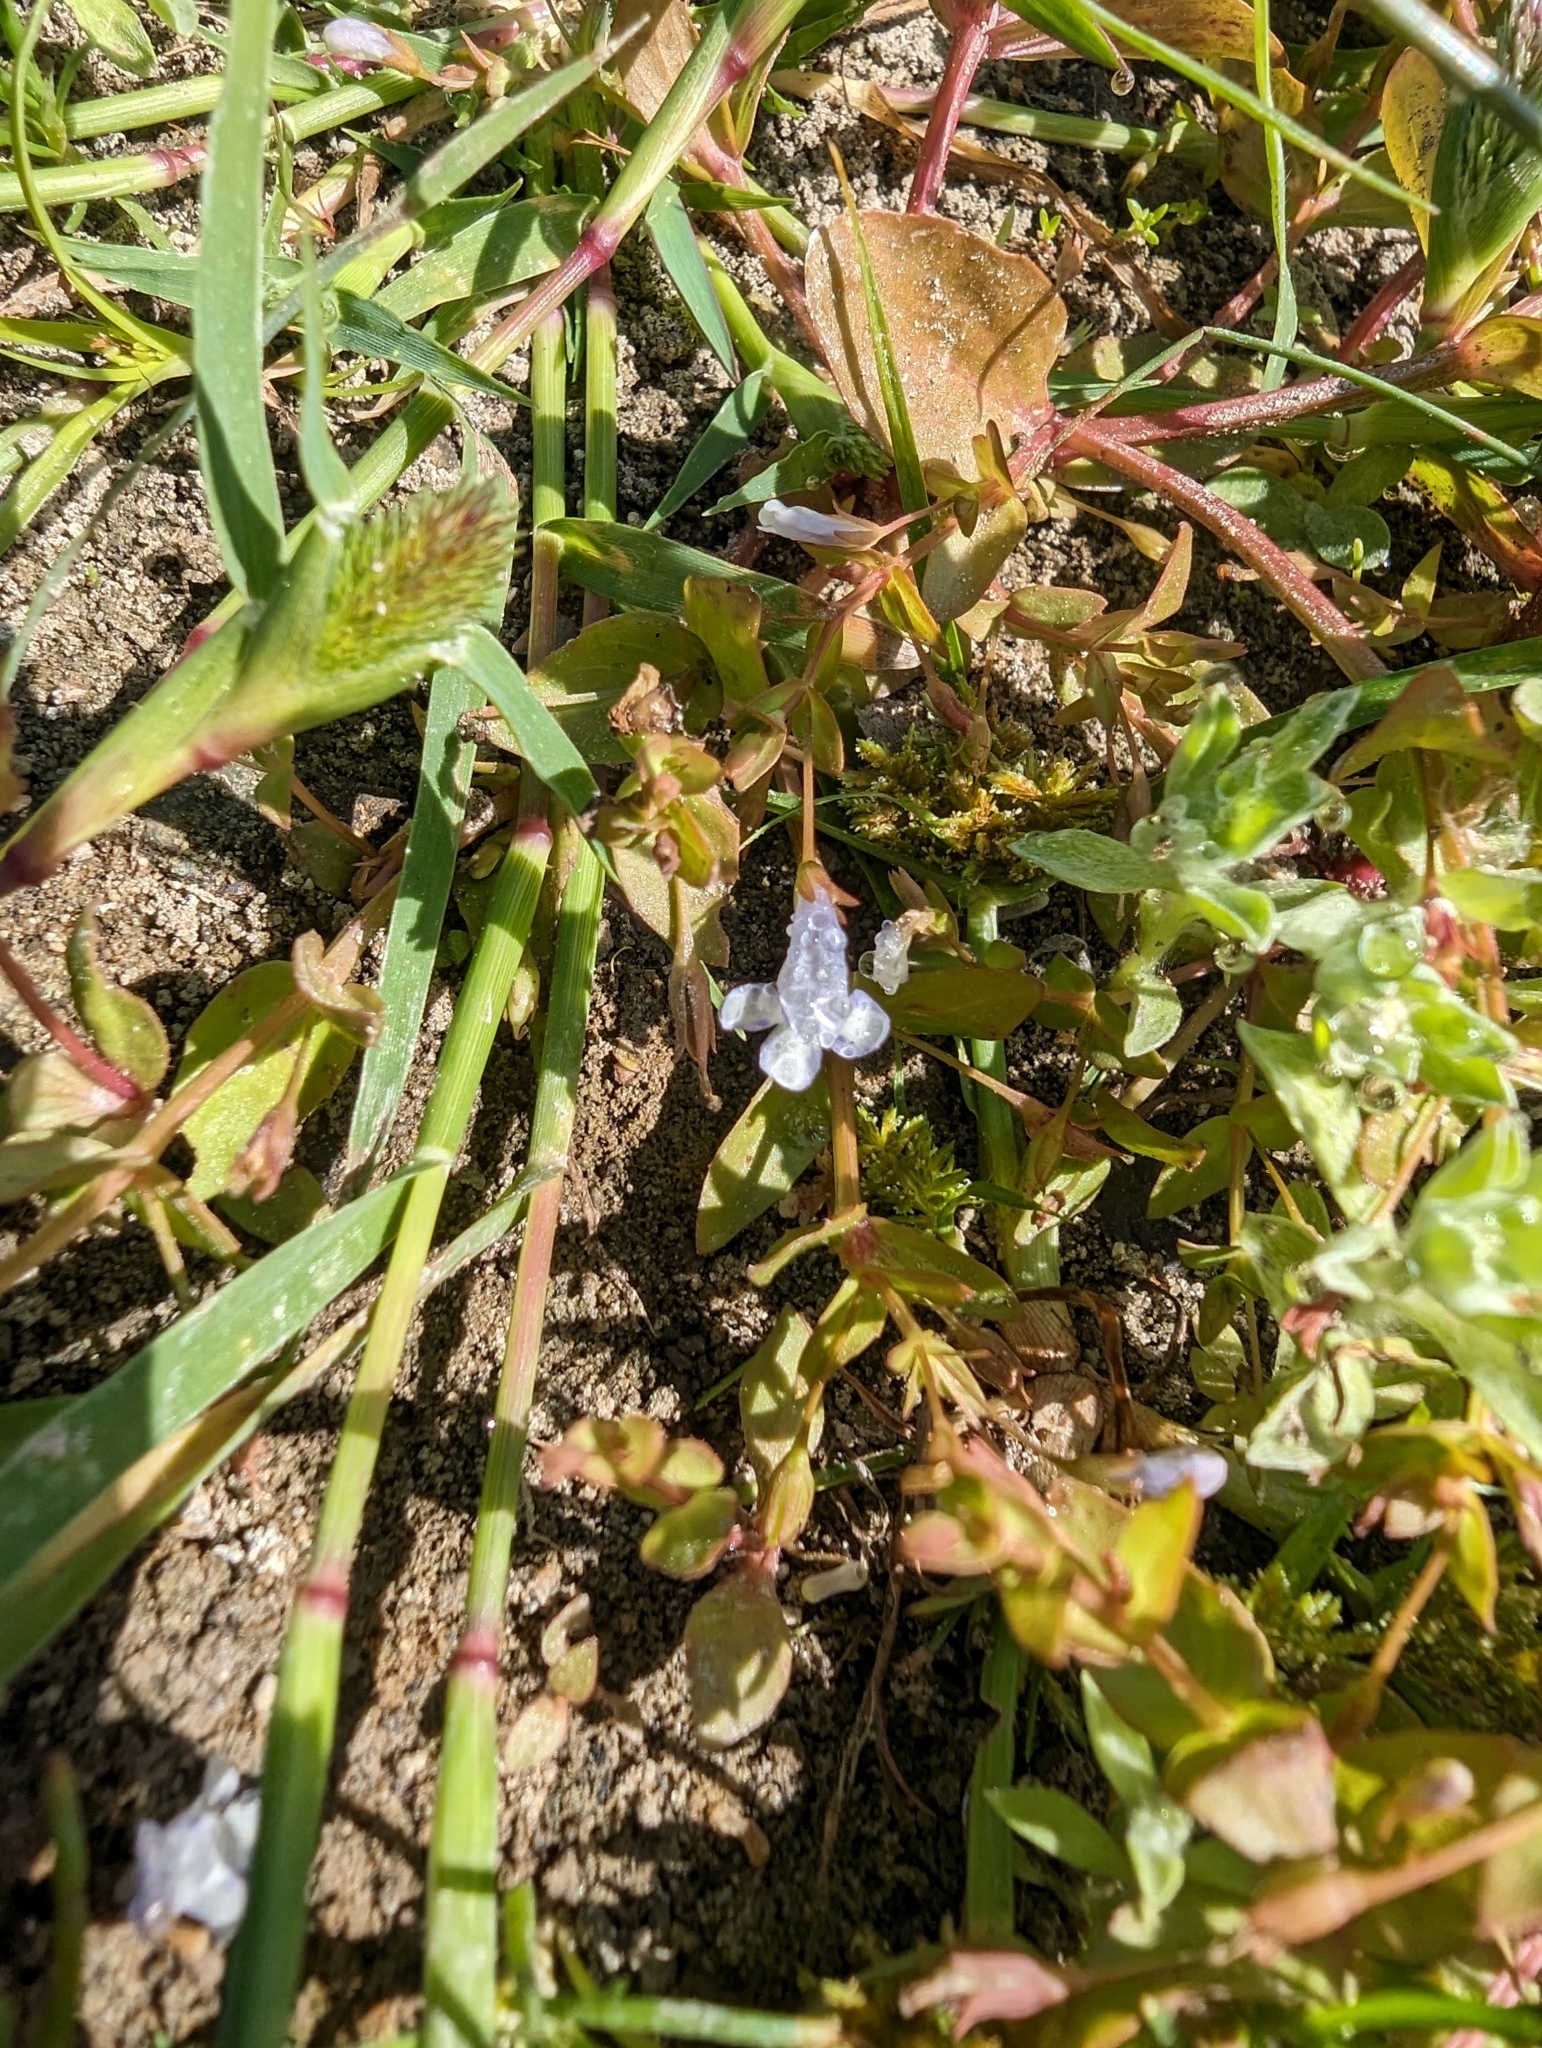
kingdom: Plantae
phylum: Tracheophyta
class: Magnoliopsida
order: Lamiales
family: Linderniaceae
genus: Lindernia
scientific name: Lindernia dubia
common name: Annual false pimpernel
